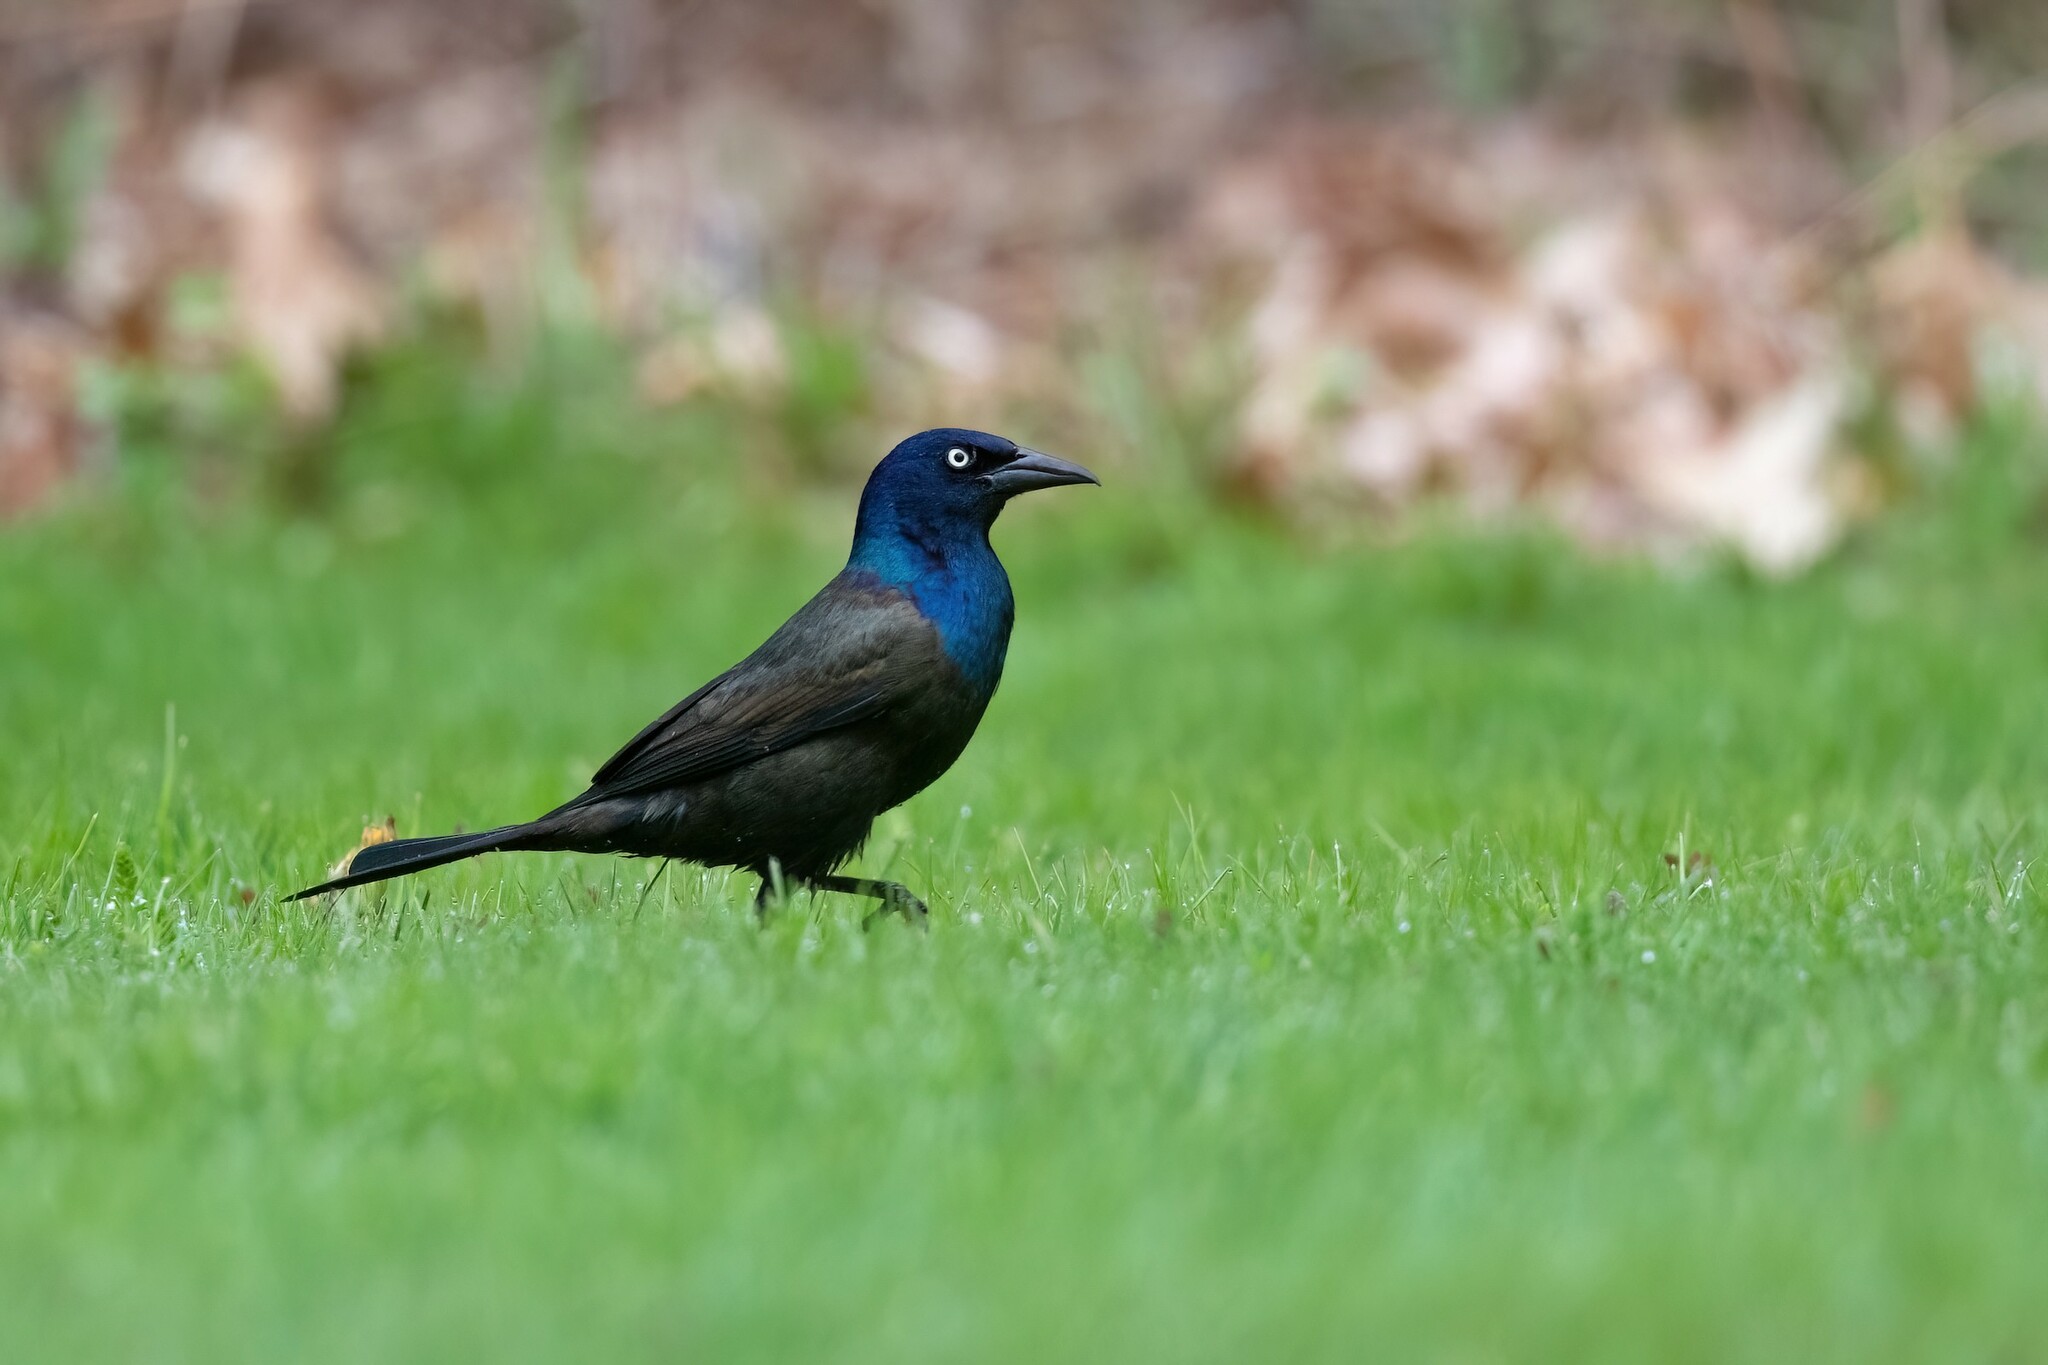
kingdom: Animalia
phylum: Chordata
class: Aves
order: Passeriformes
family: Icteridae
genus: Quiscalus
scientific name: Quiscalus quiscula
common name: Common grackle
